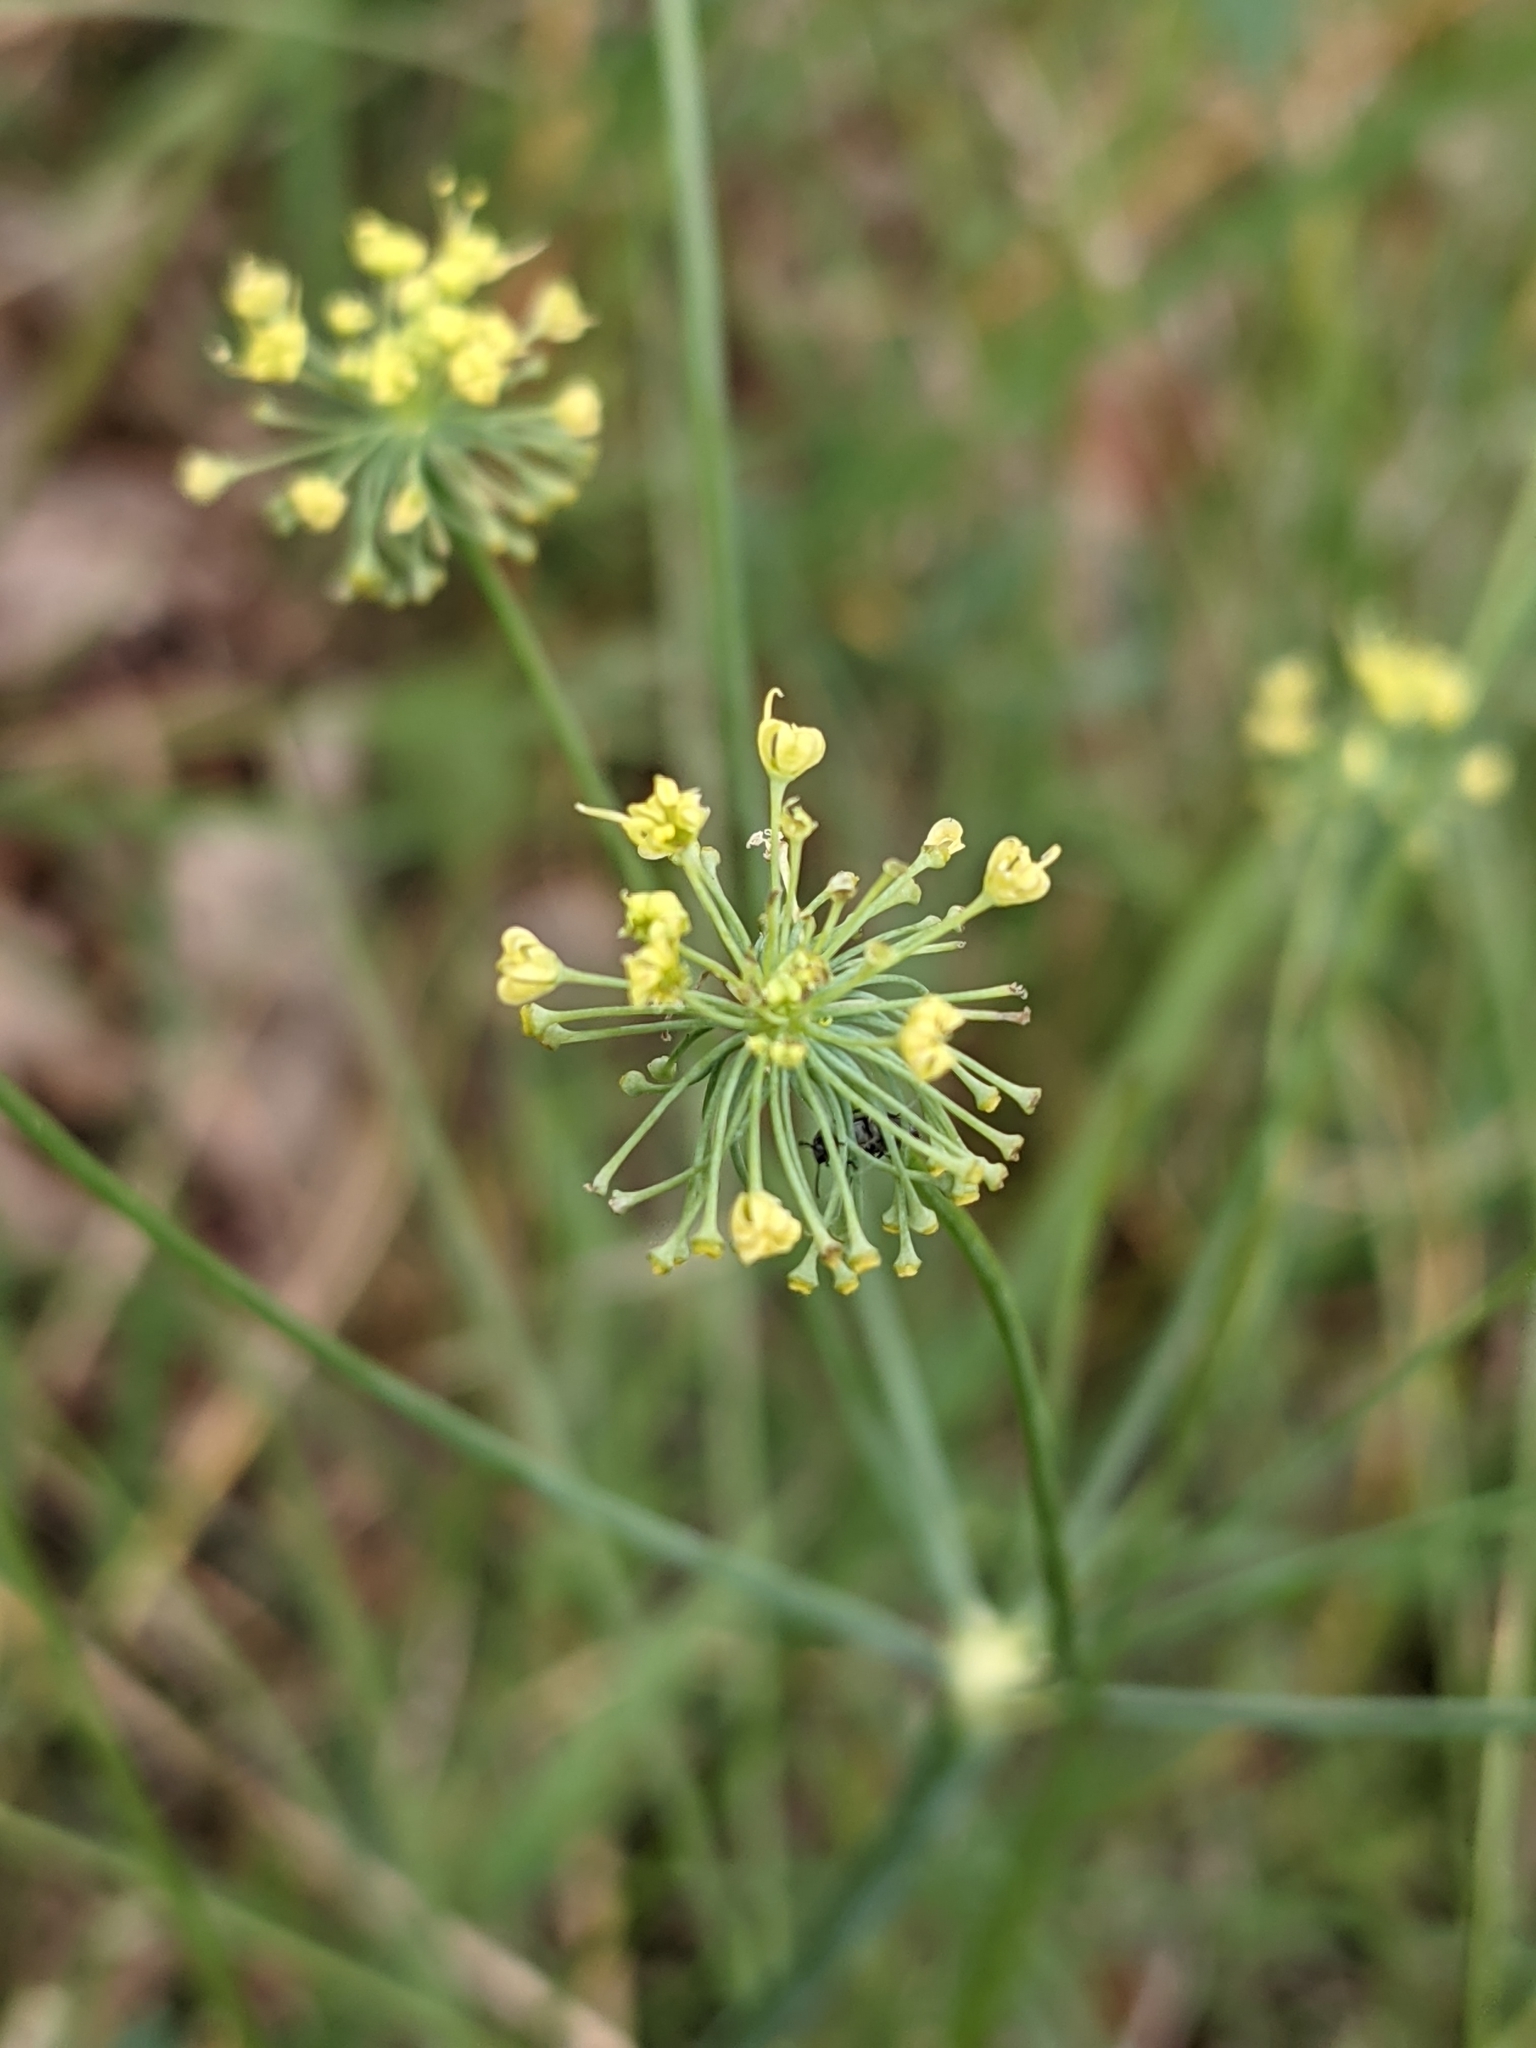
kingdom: Plantae
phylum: Tracheophyta
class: Magnoliopsida
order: Apiales
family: Apiaceae
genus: Lomatium
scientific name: Lomatium nudicaule
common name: Pestle lomatium
